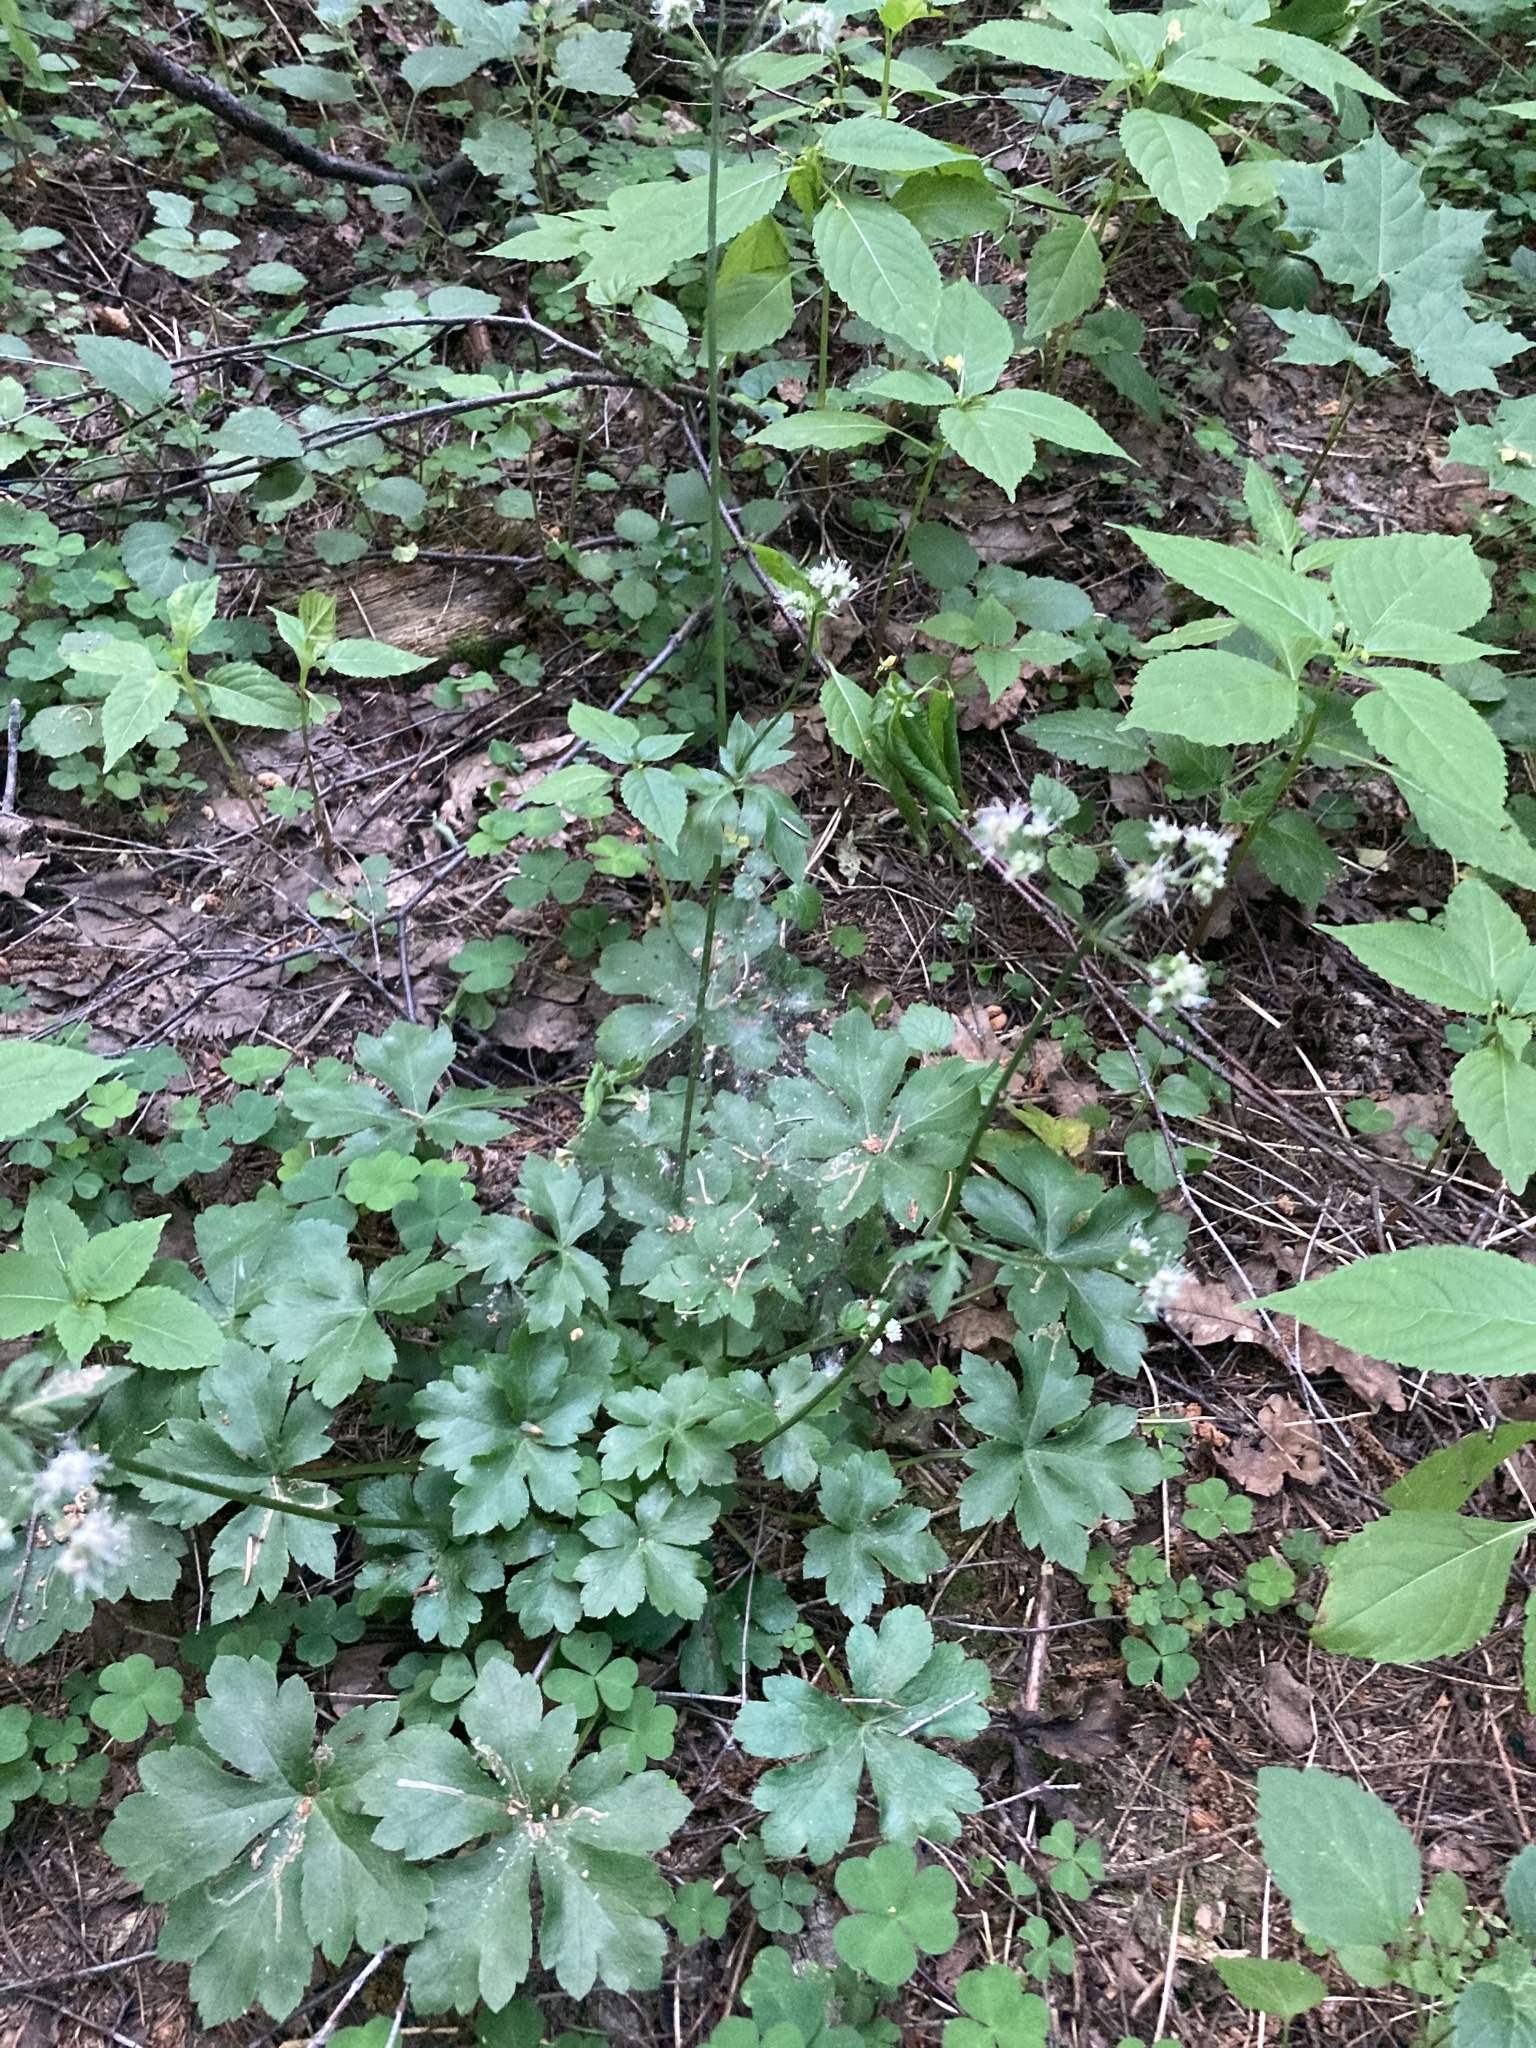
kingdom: Plantae
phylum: Tracheophyta
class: Magnoliopsida
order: Apiales
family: Apiaceae
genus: Sanicula
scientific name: Sanicula europaea
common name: Sanicle
